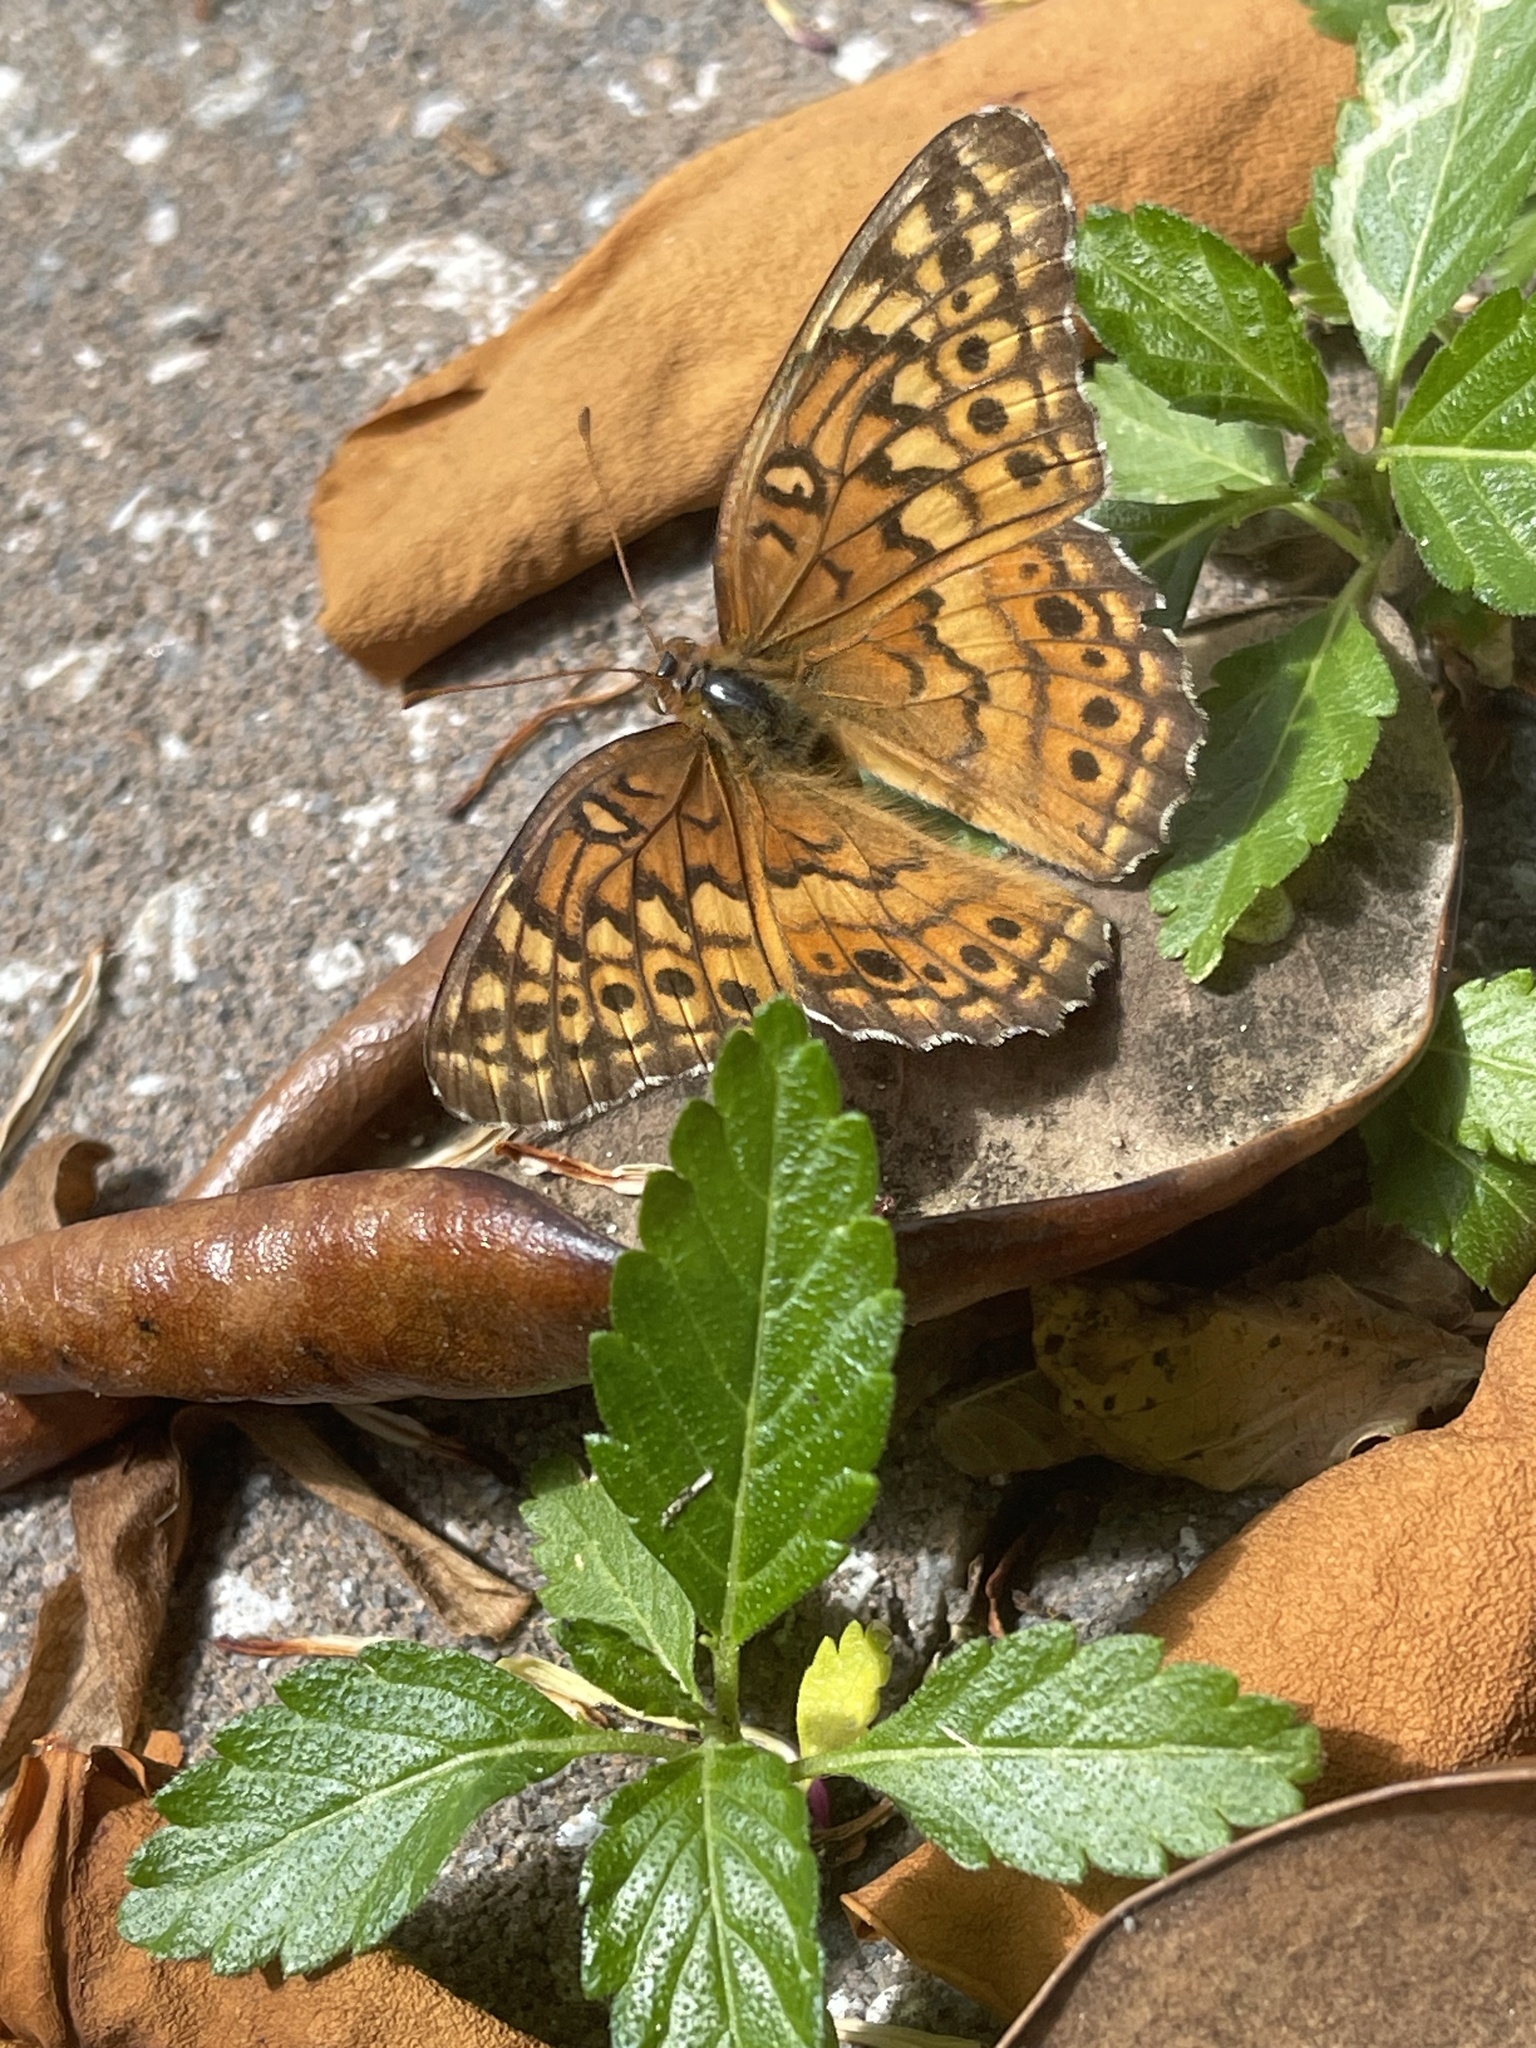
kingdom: Animalia
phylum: Arthropoda
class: Insecta
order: Lepidoptera
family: Nymphalidae
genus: Euptoieta
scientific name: Euptoieta claudia
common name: Variegated fritillary
